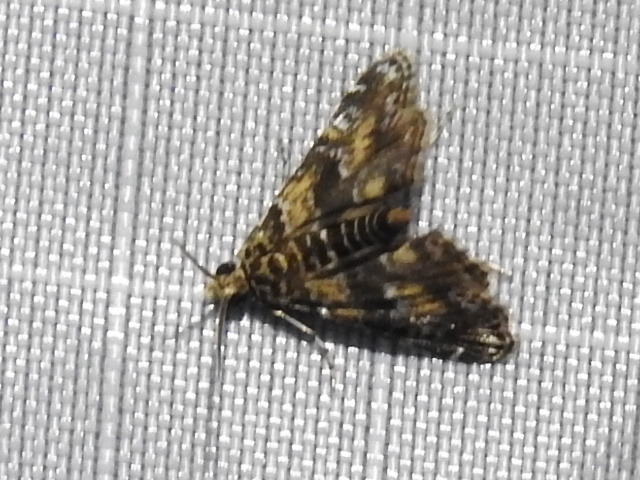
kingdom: Animalia
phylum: Arthropoda
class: Insecta
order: Lepidoptera
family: Crambidae
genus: Elophila
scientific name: Elophila obliteralis
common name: Waterlily leafcutter moth
